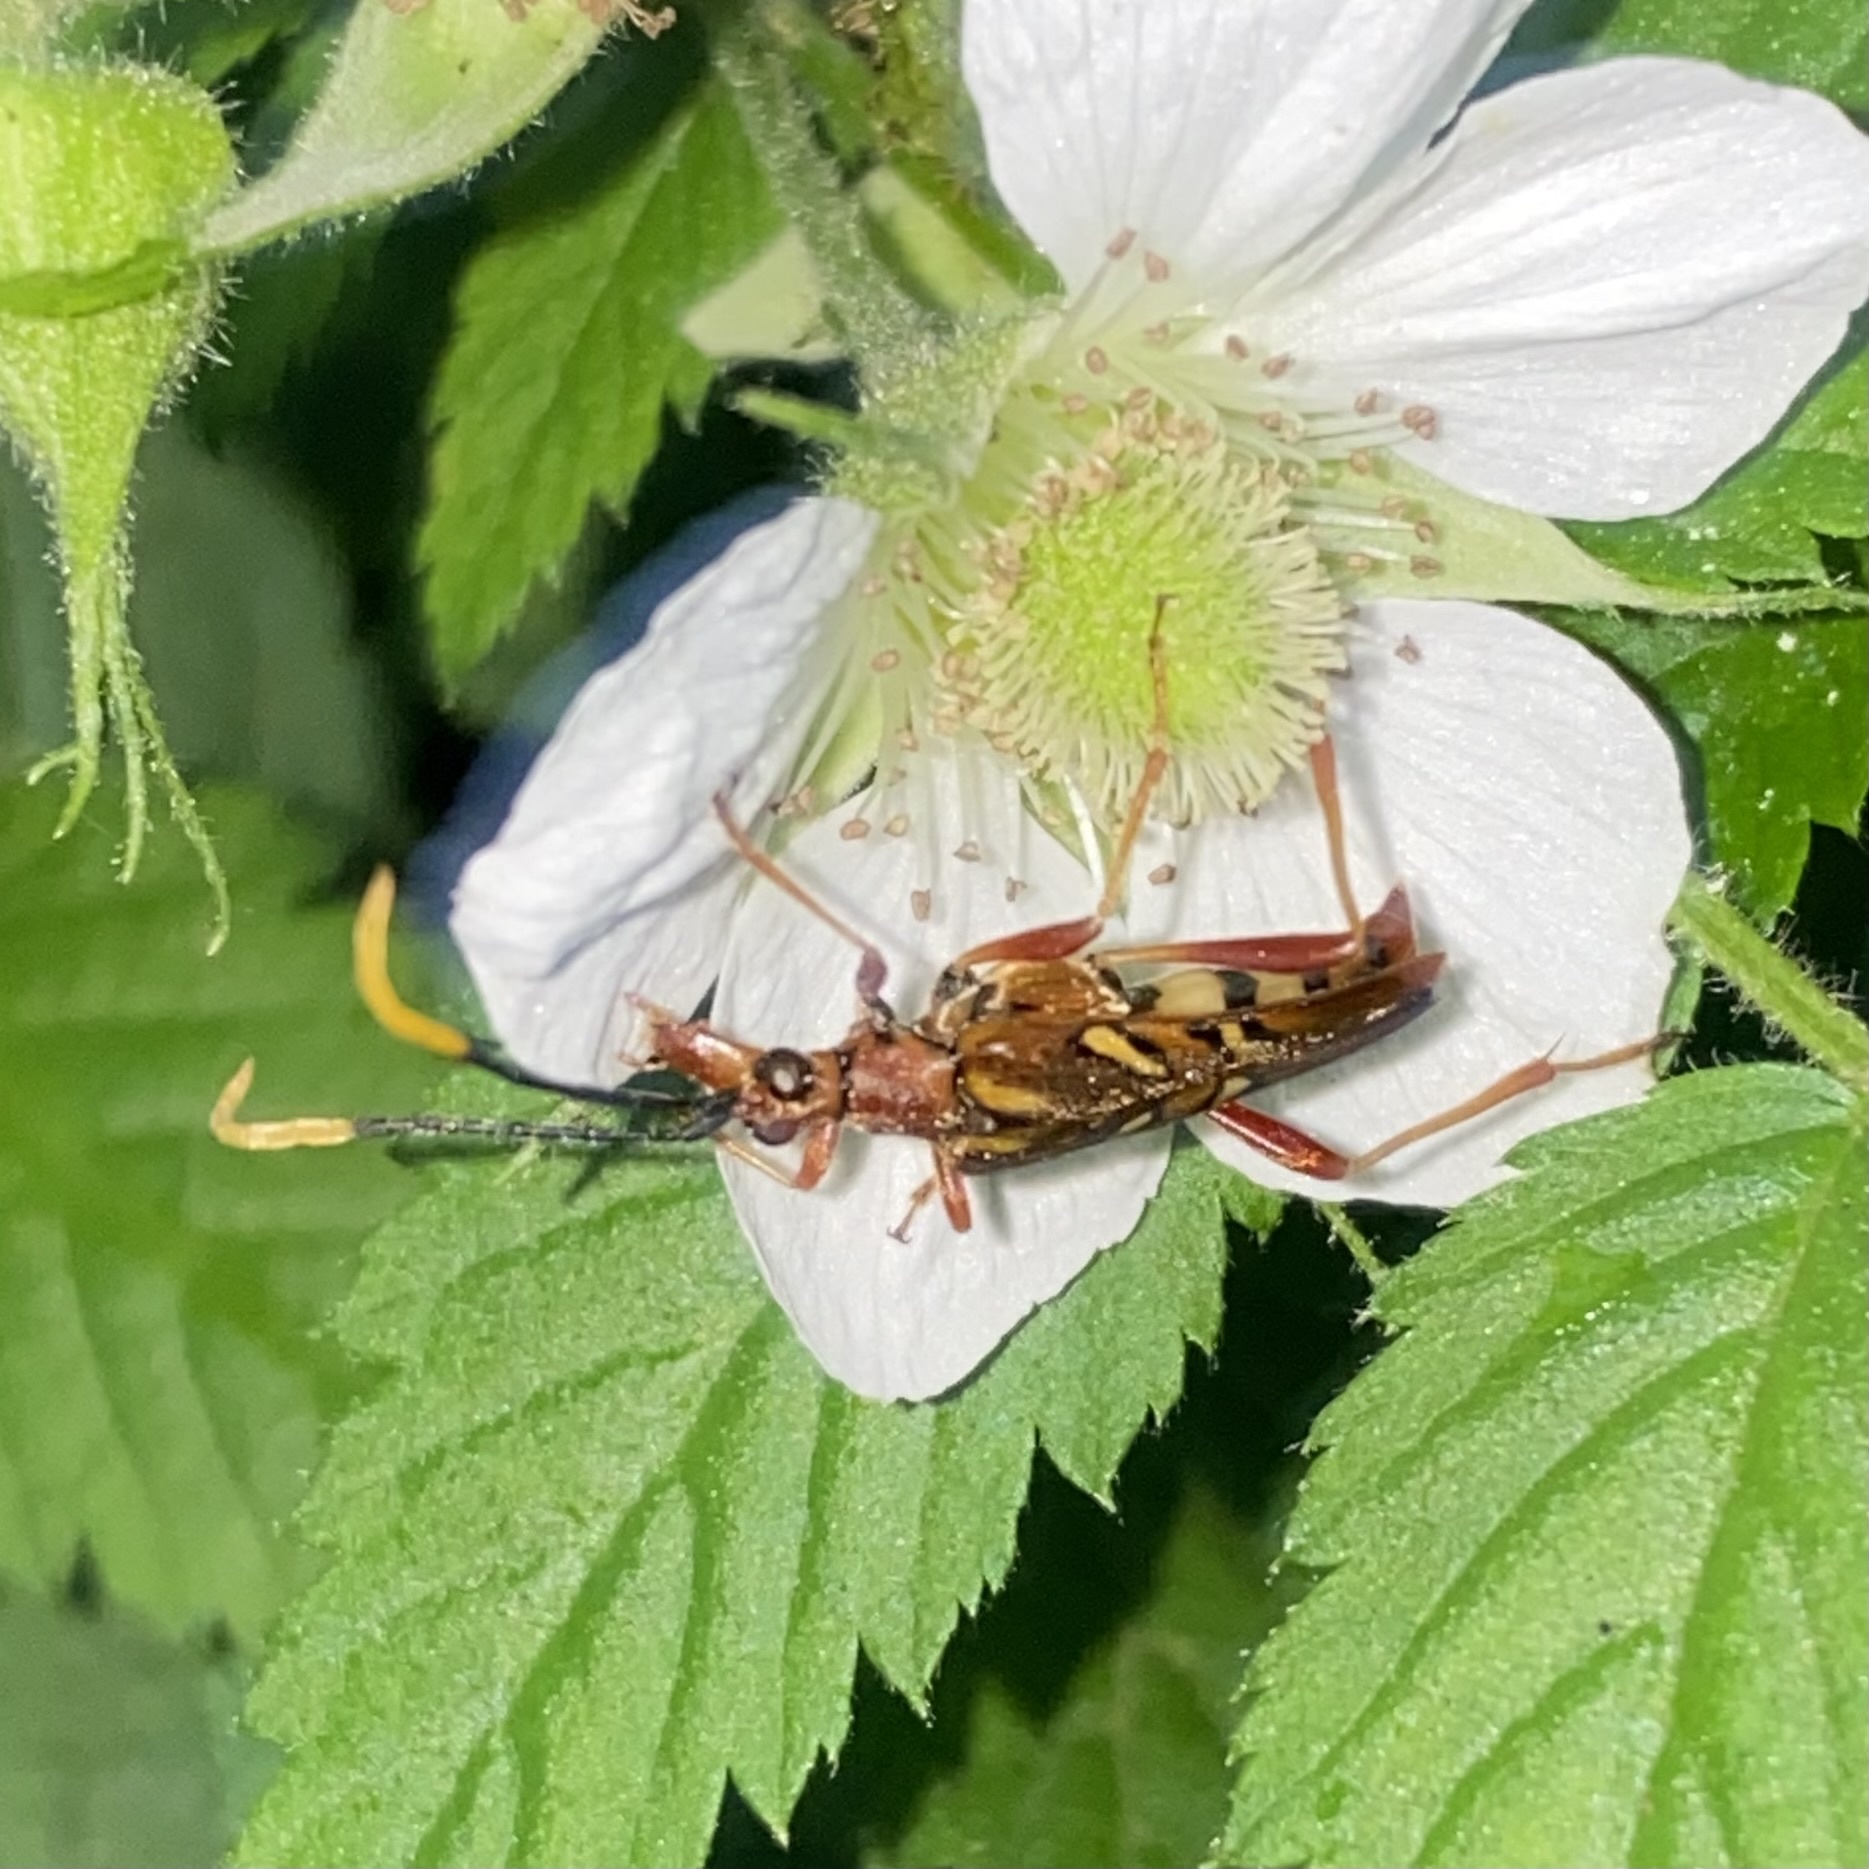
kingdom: Animalia
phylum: Arthropoda
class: Insecta
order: Coleoptera
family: Cerambycidae
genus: Strangalia
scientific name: Strangalia melampus
